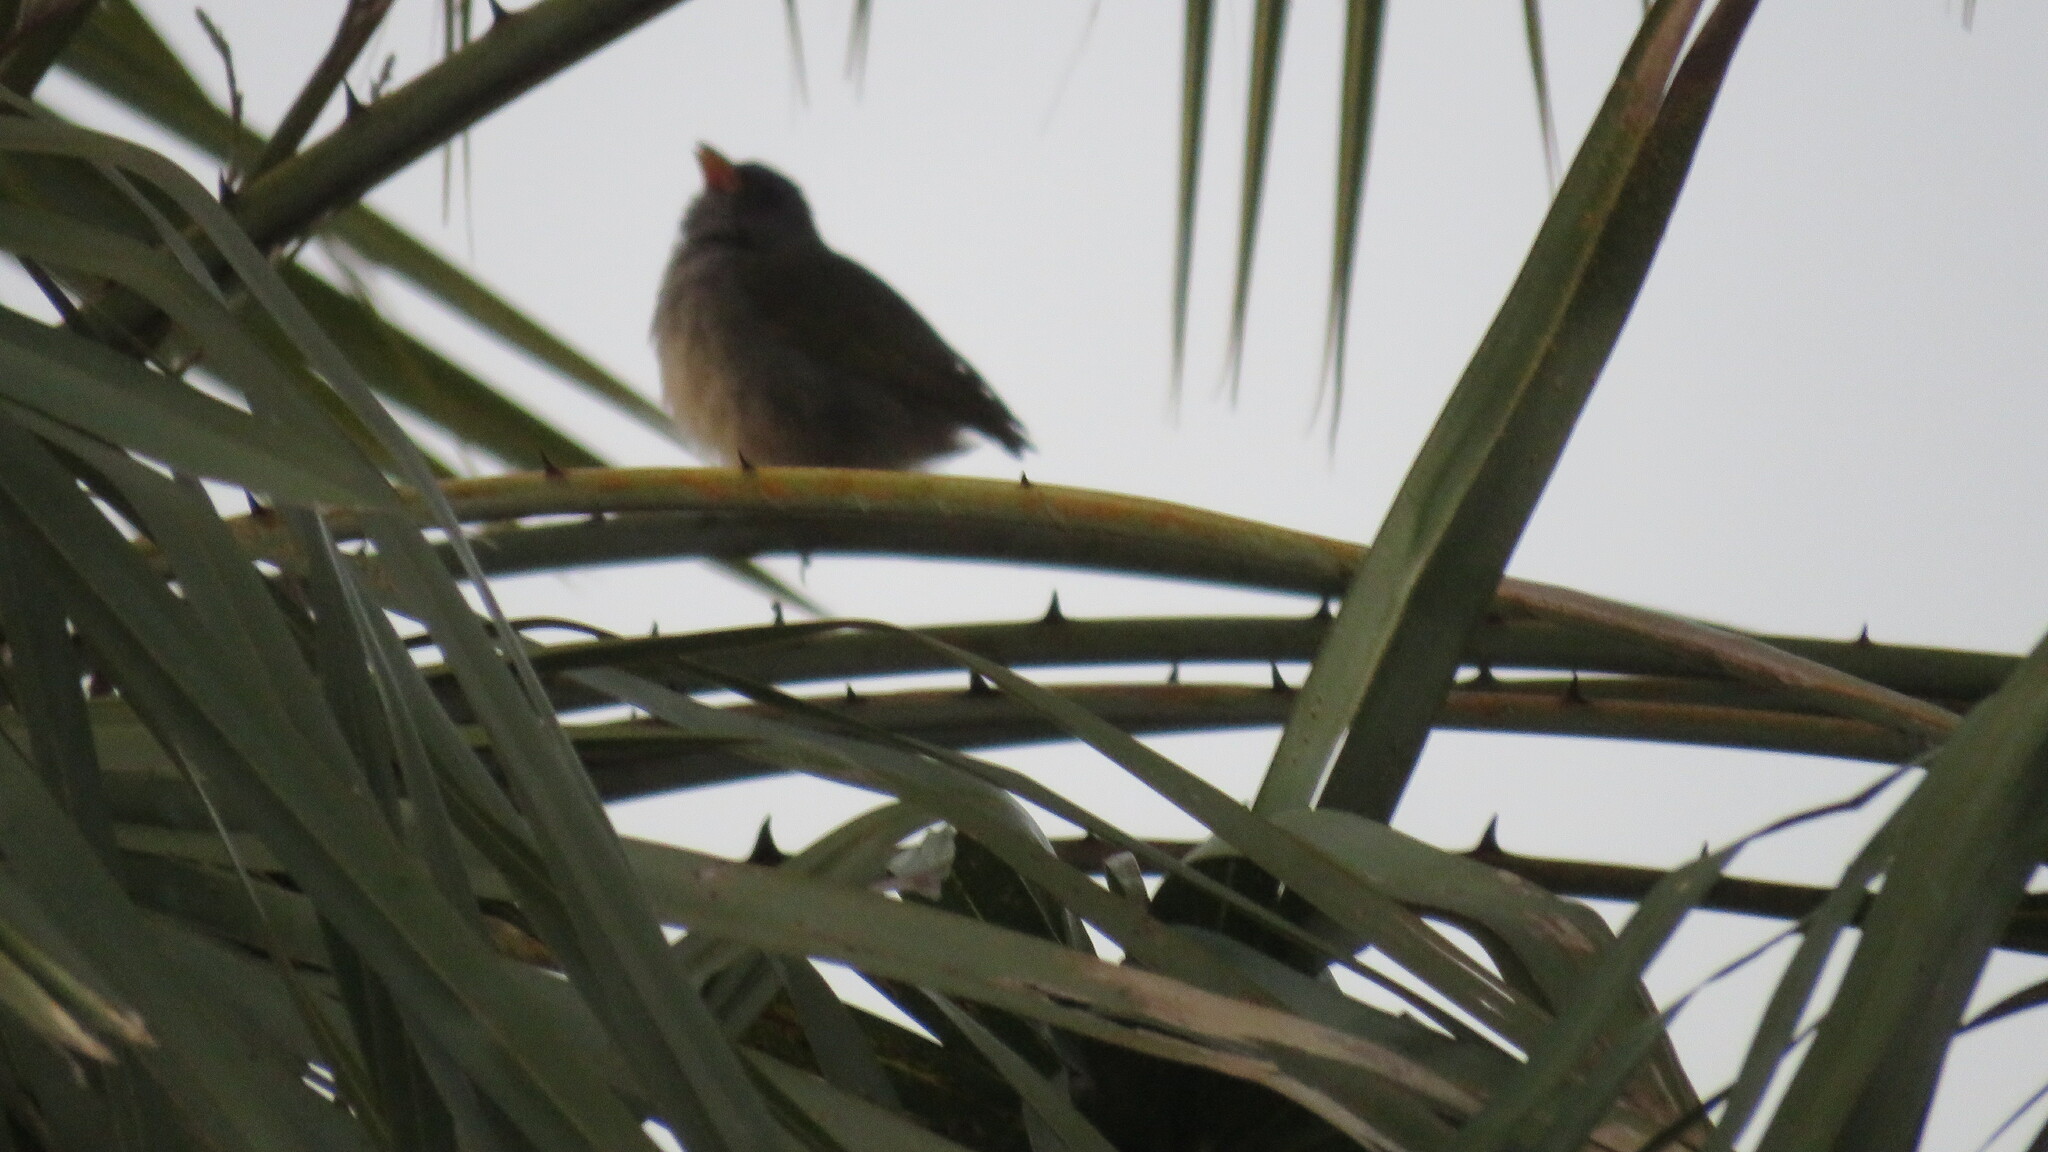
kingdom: Animalia
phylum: Chordata
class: Aves
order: Passeriformes
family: Thraupidae
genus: Embernagra
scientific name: Embernagra platensis
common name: Pampa finch
